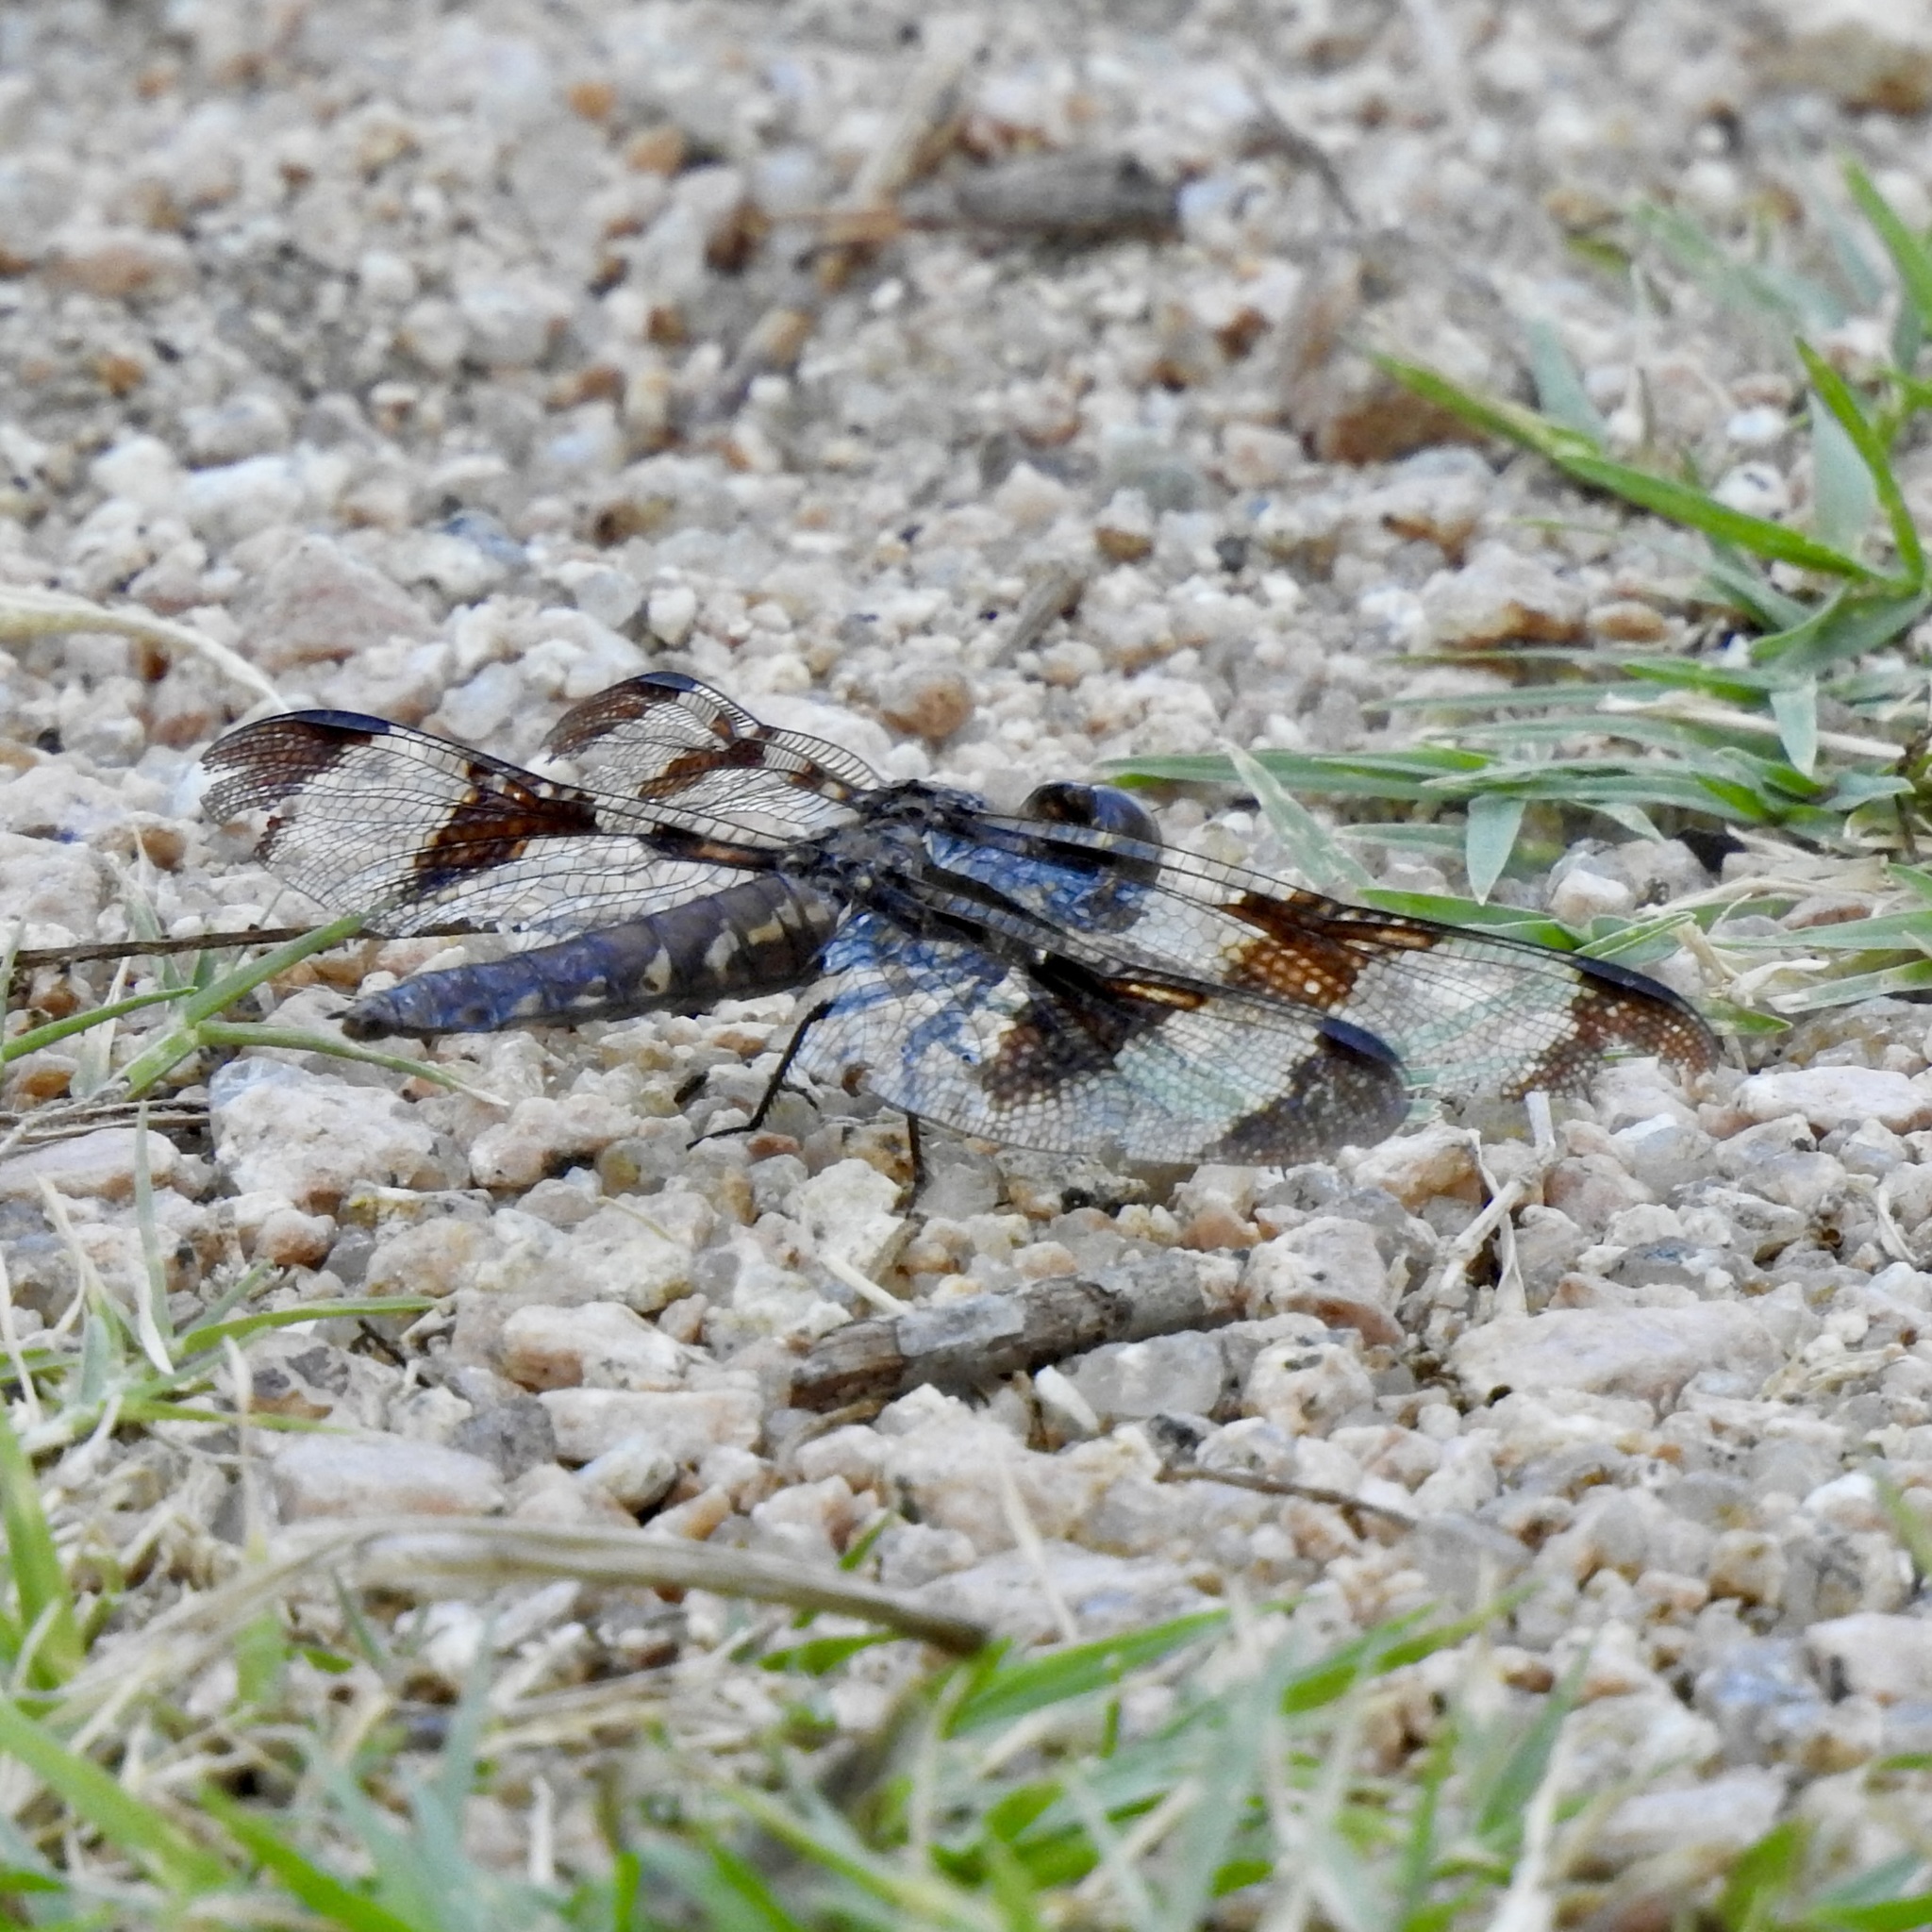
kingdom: Animalia
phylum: Arthropoda
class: Insecta
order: Odonata
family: Libellulidae
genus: Plathemis
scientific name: Plathemis lydia
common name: Common whitetail
